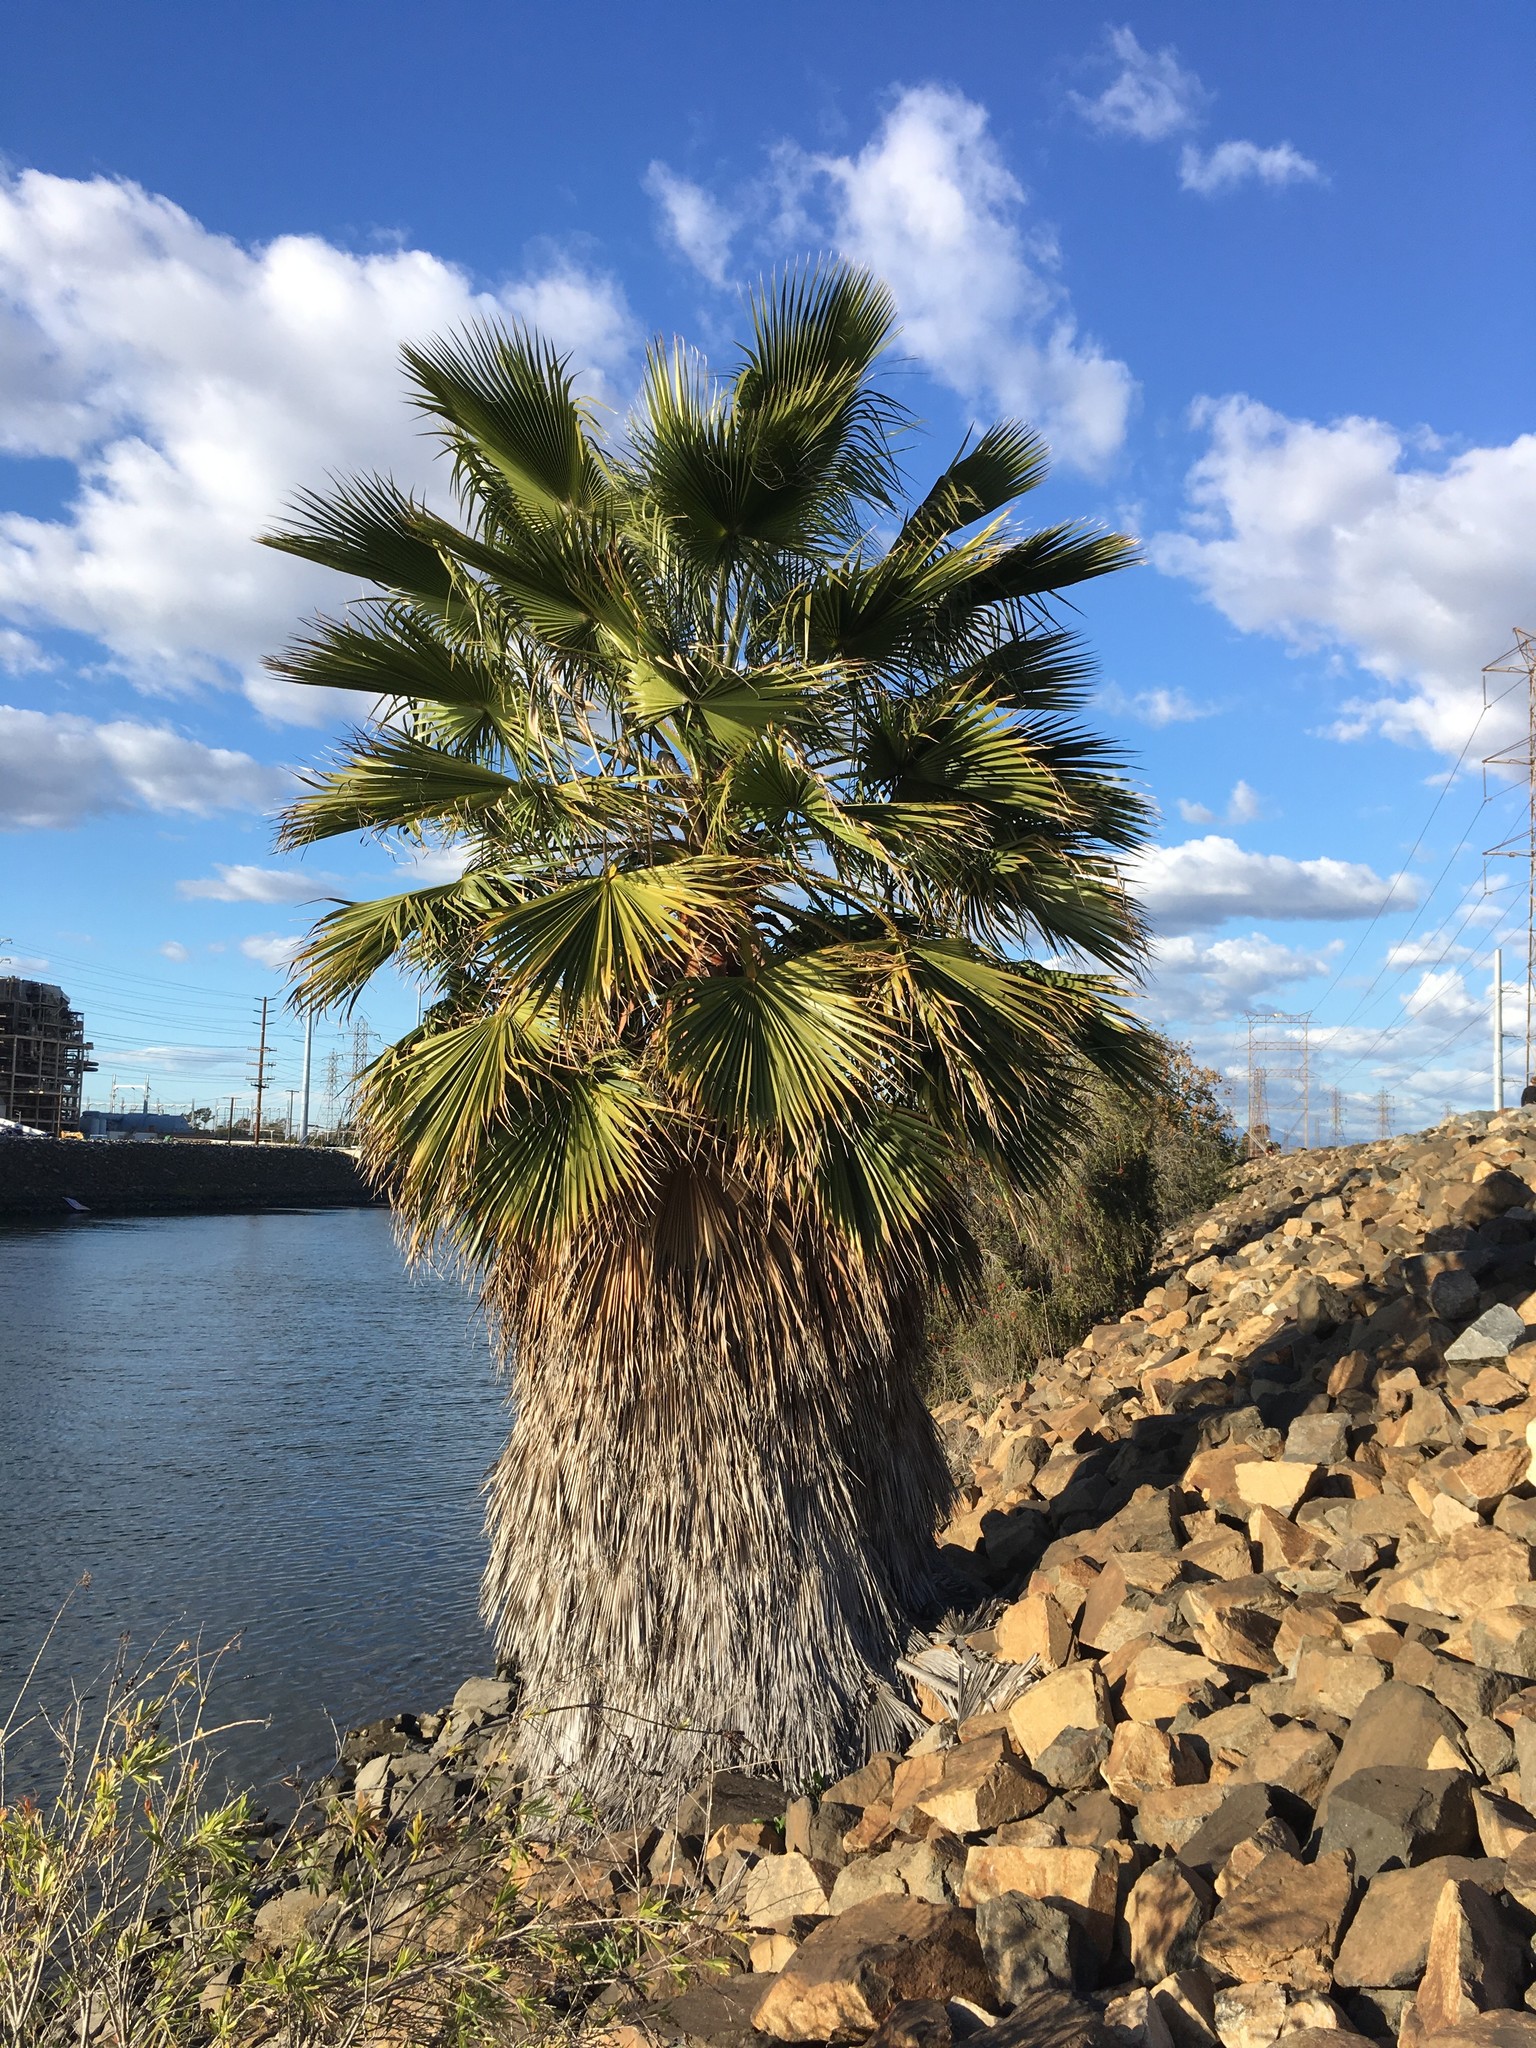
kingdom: Plantae
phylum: Tracheophyta
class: Liliopsida
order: Arecales
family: Arecaceae
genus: Washingtonia
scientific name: Washingtonia robusta
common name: Mexican fan palm
